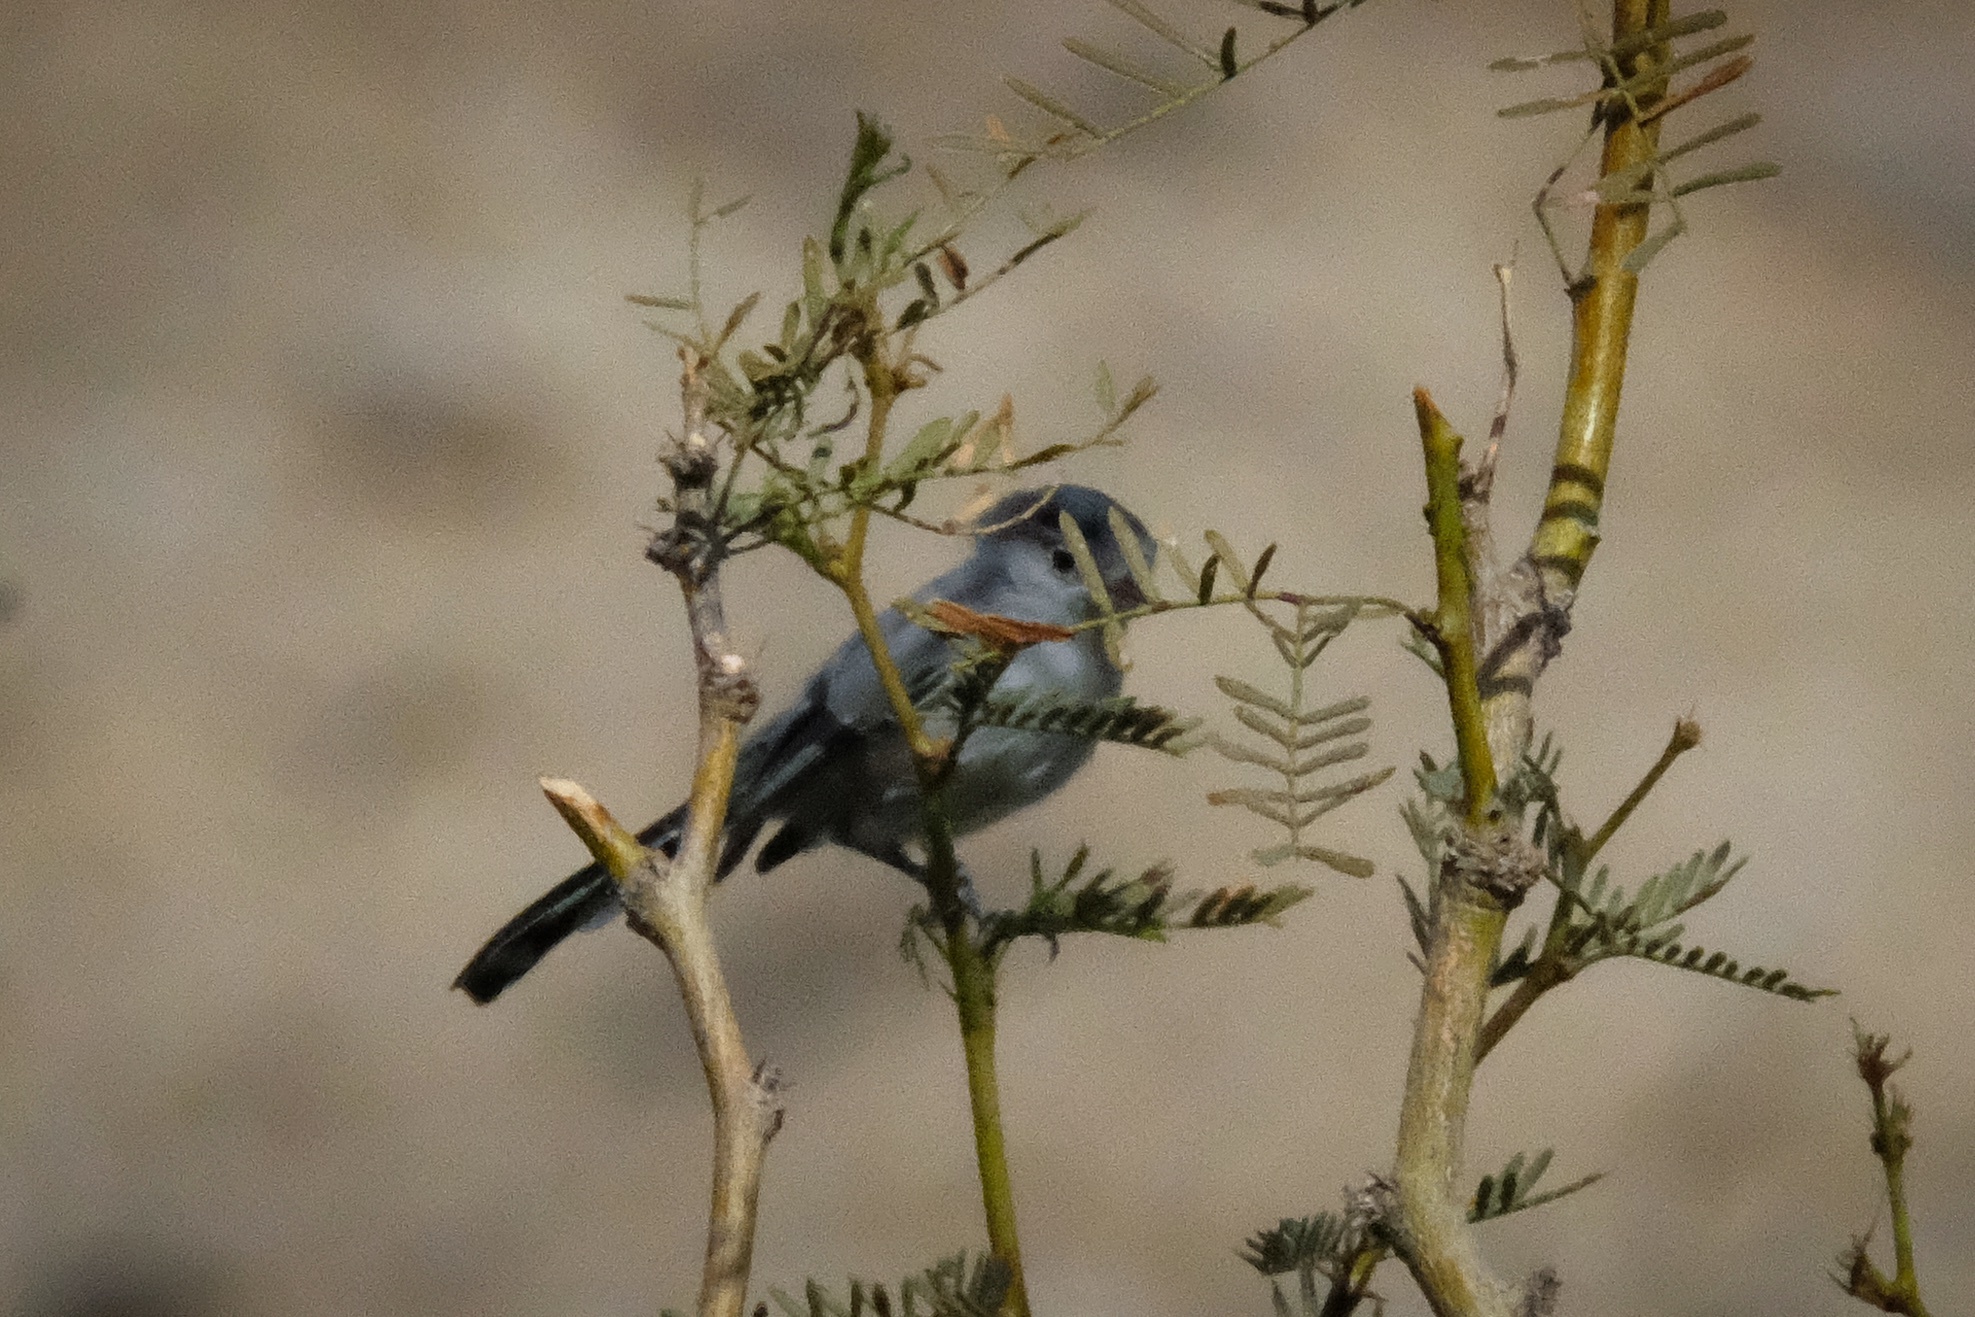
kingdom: Animalia
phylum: Chordata
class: Aves
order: Passeriformes
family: Polioptilidae
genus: Polioptila
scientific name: Polioptila melanura
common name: Black-tailed gnatcatcher
